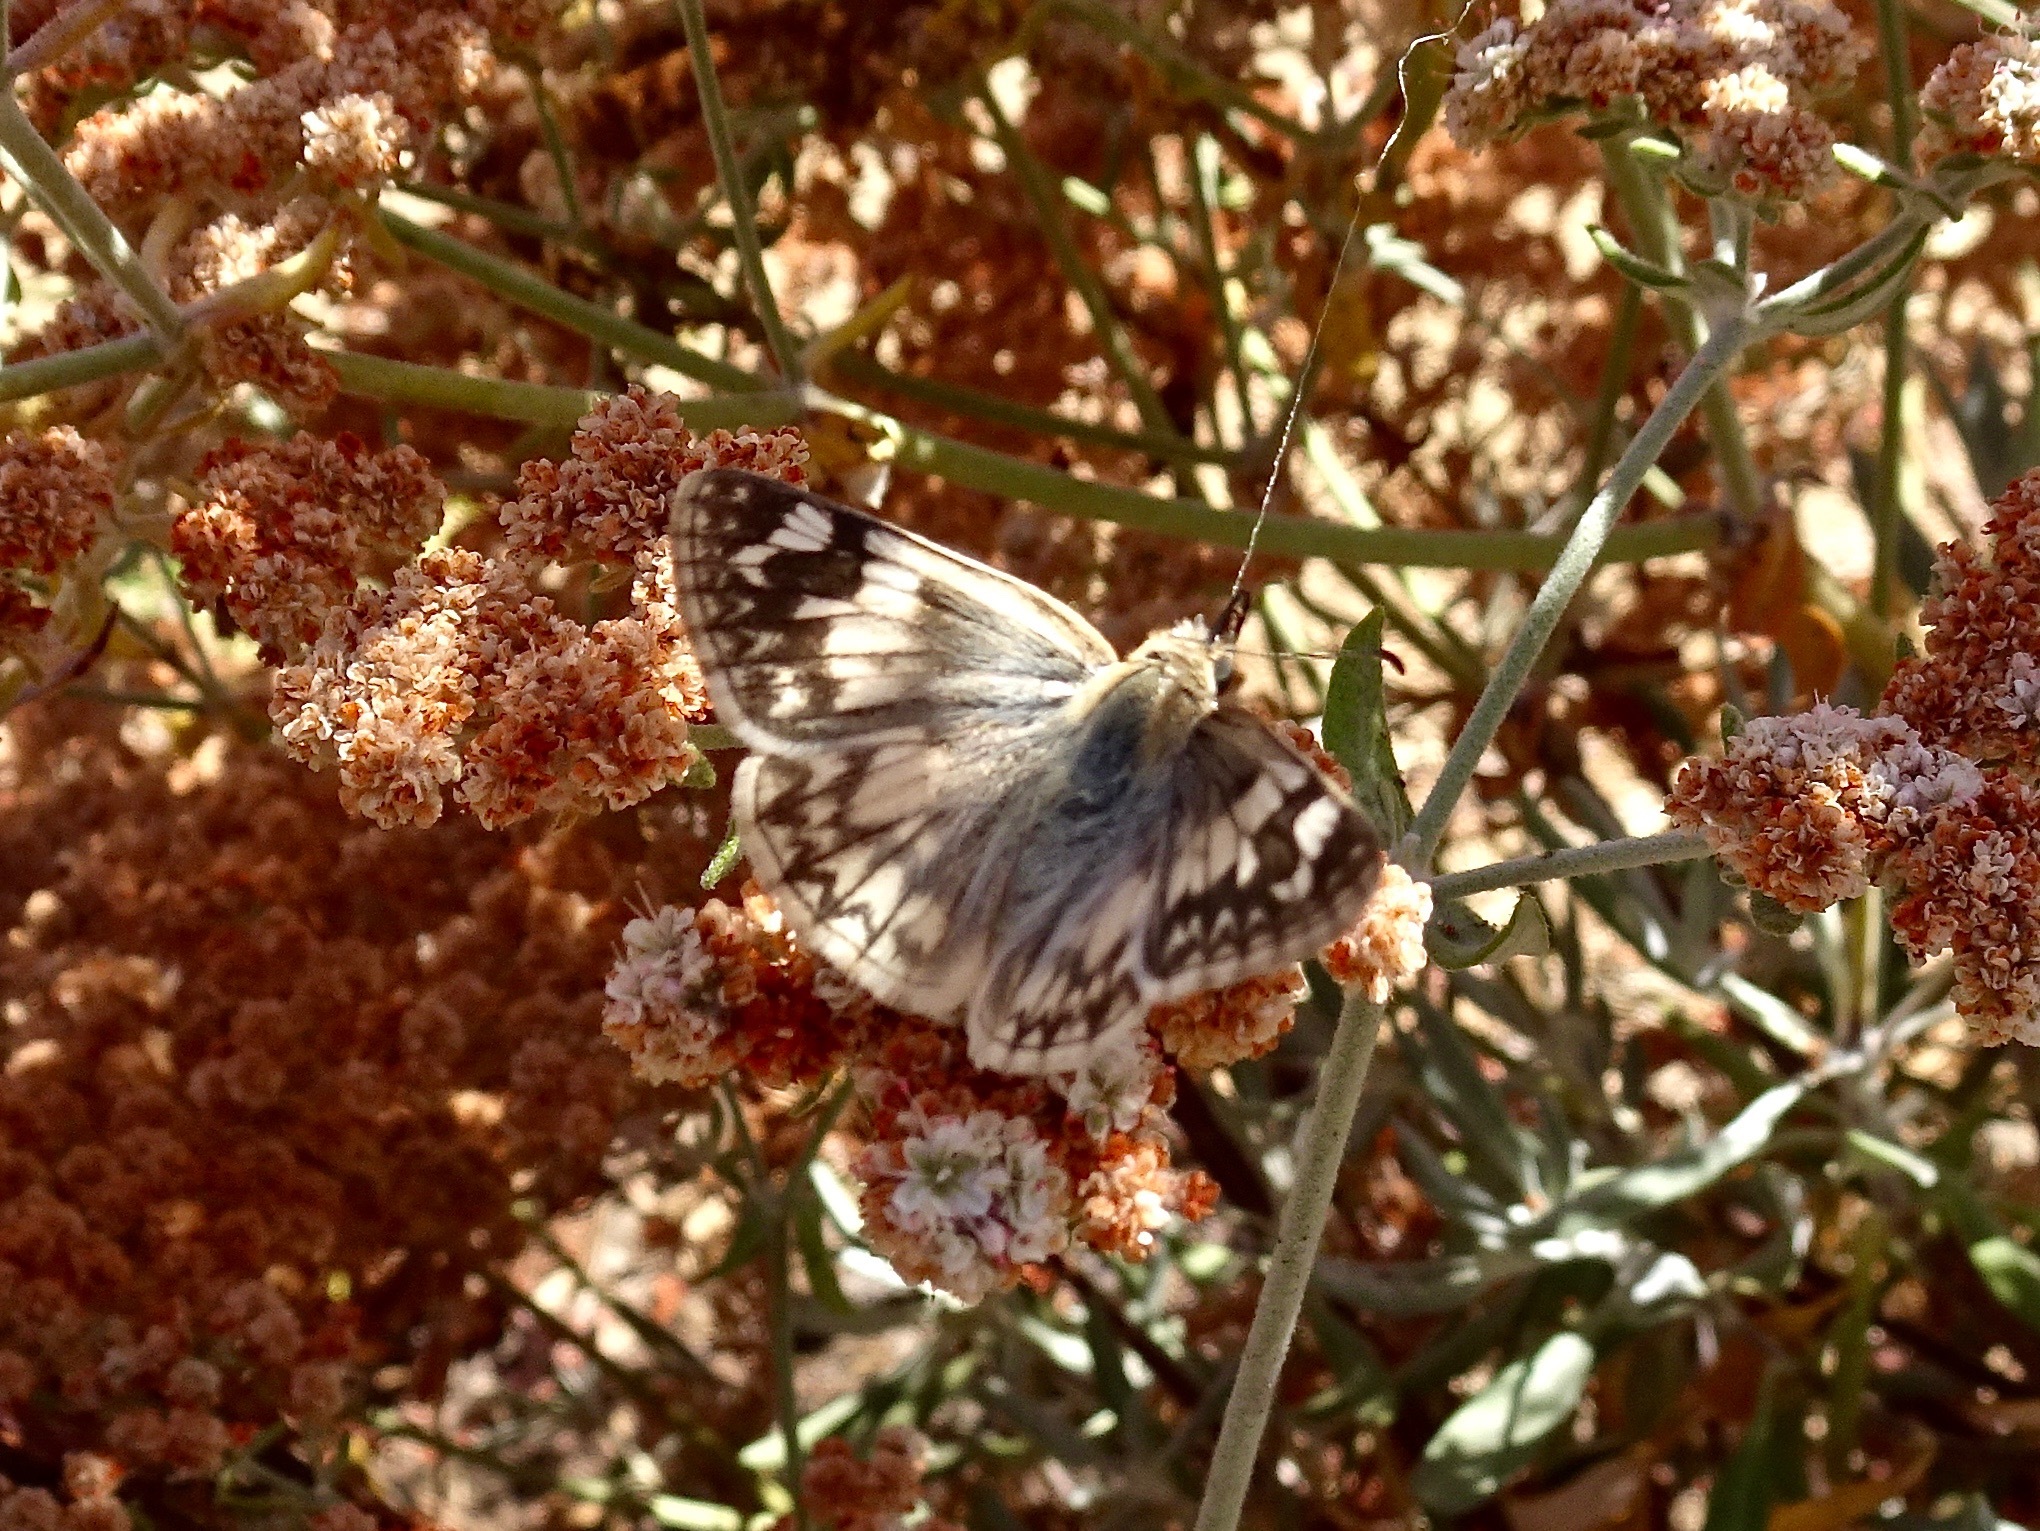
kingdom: Animalia
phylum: Arthropoda
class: Insecta
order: Lepidoptera
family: Hesperiidae
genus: Heliopetes
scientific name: Heliopetes ericetorum
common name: Northern white-skipper
